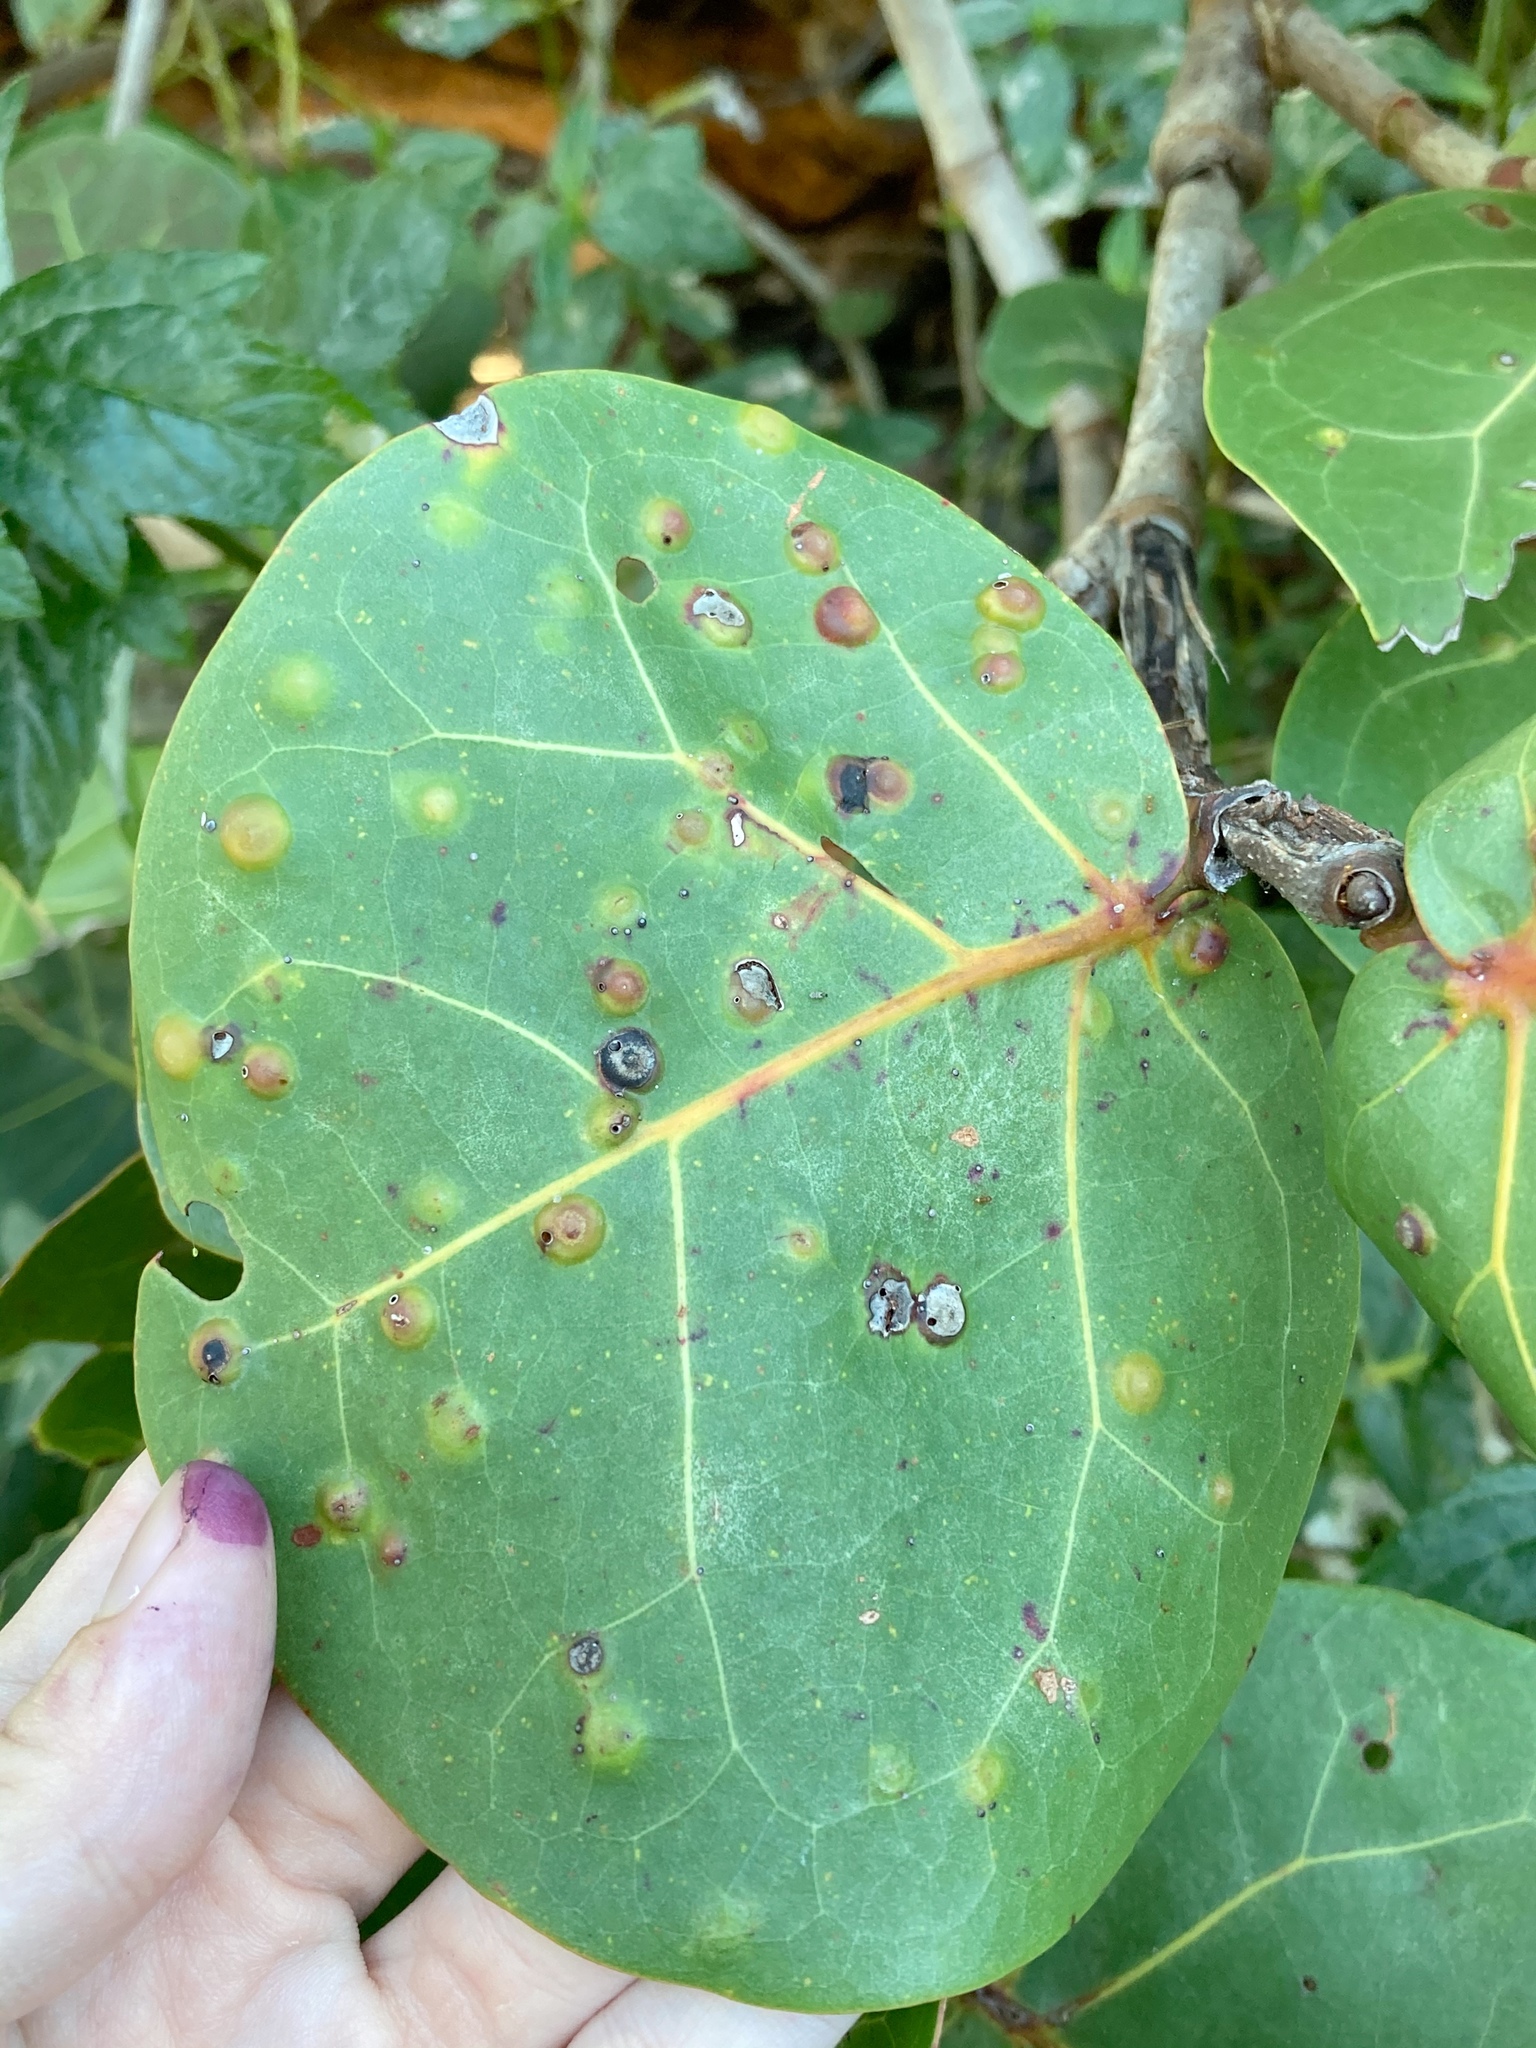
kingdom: Animalia
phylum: Arthropoda
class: Insecta
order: Diptera
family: Cecidomyiidae
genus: Ctenodactylomyia
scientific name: Ctenodactylomyia watsoni
